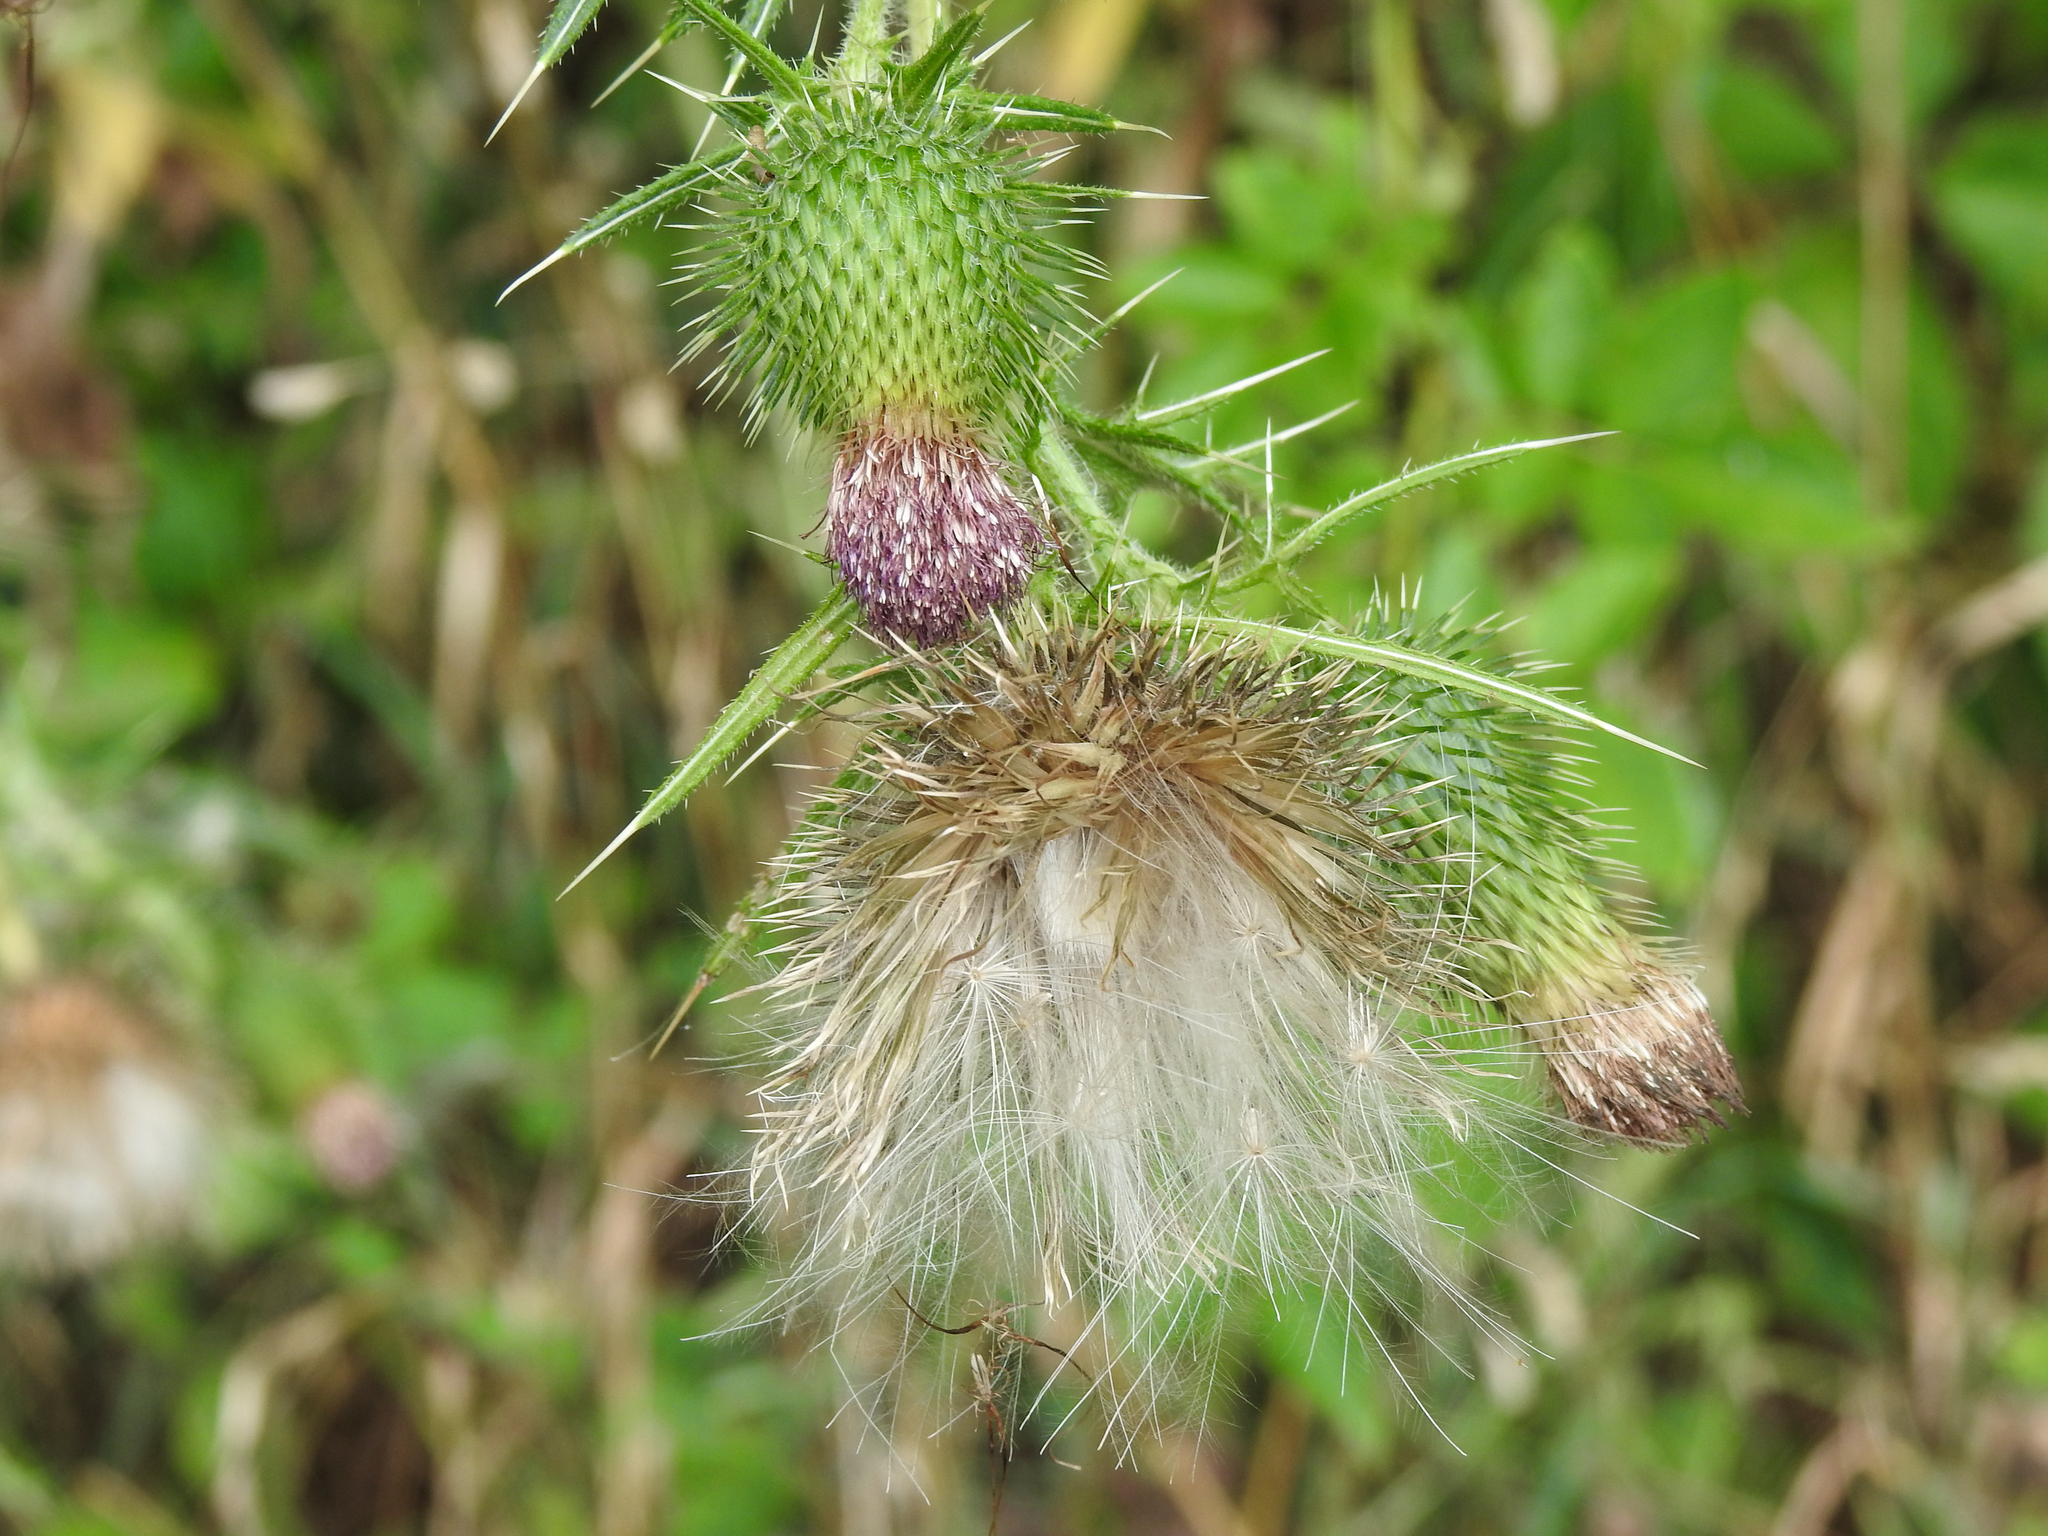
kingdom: Plantae
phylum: Tracheophyta
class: Magnoliopsida
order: Asterales
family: Asteraceae
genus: Cirsium
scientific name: Cirsium vulgare
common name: Bull thistle
